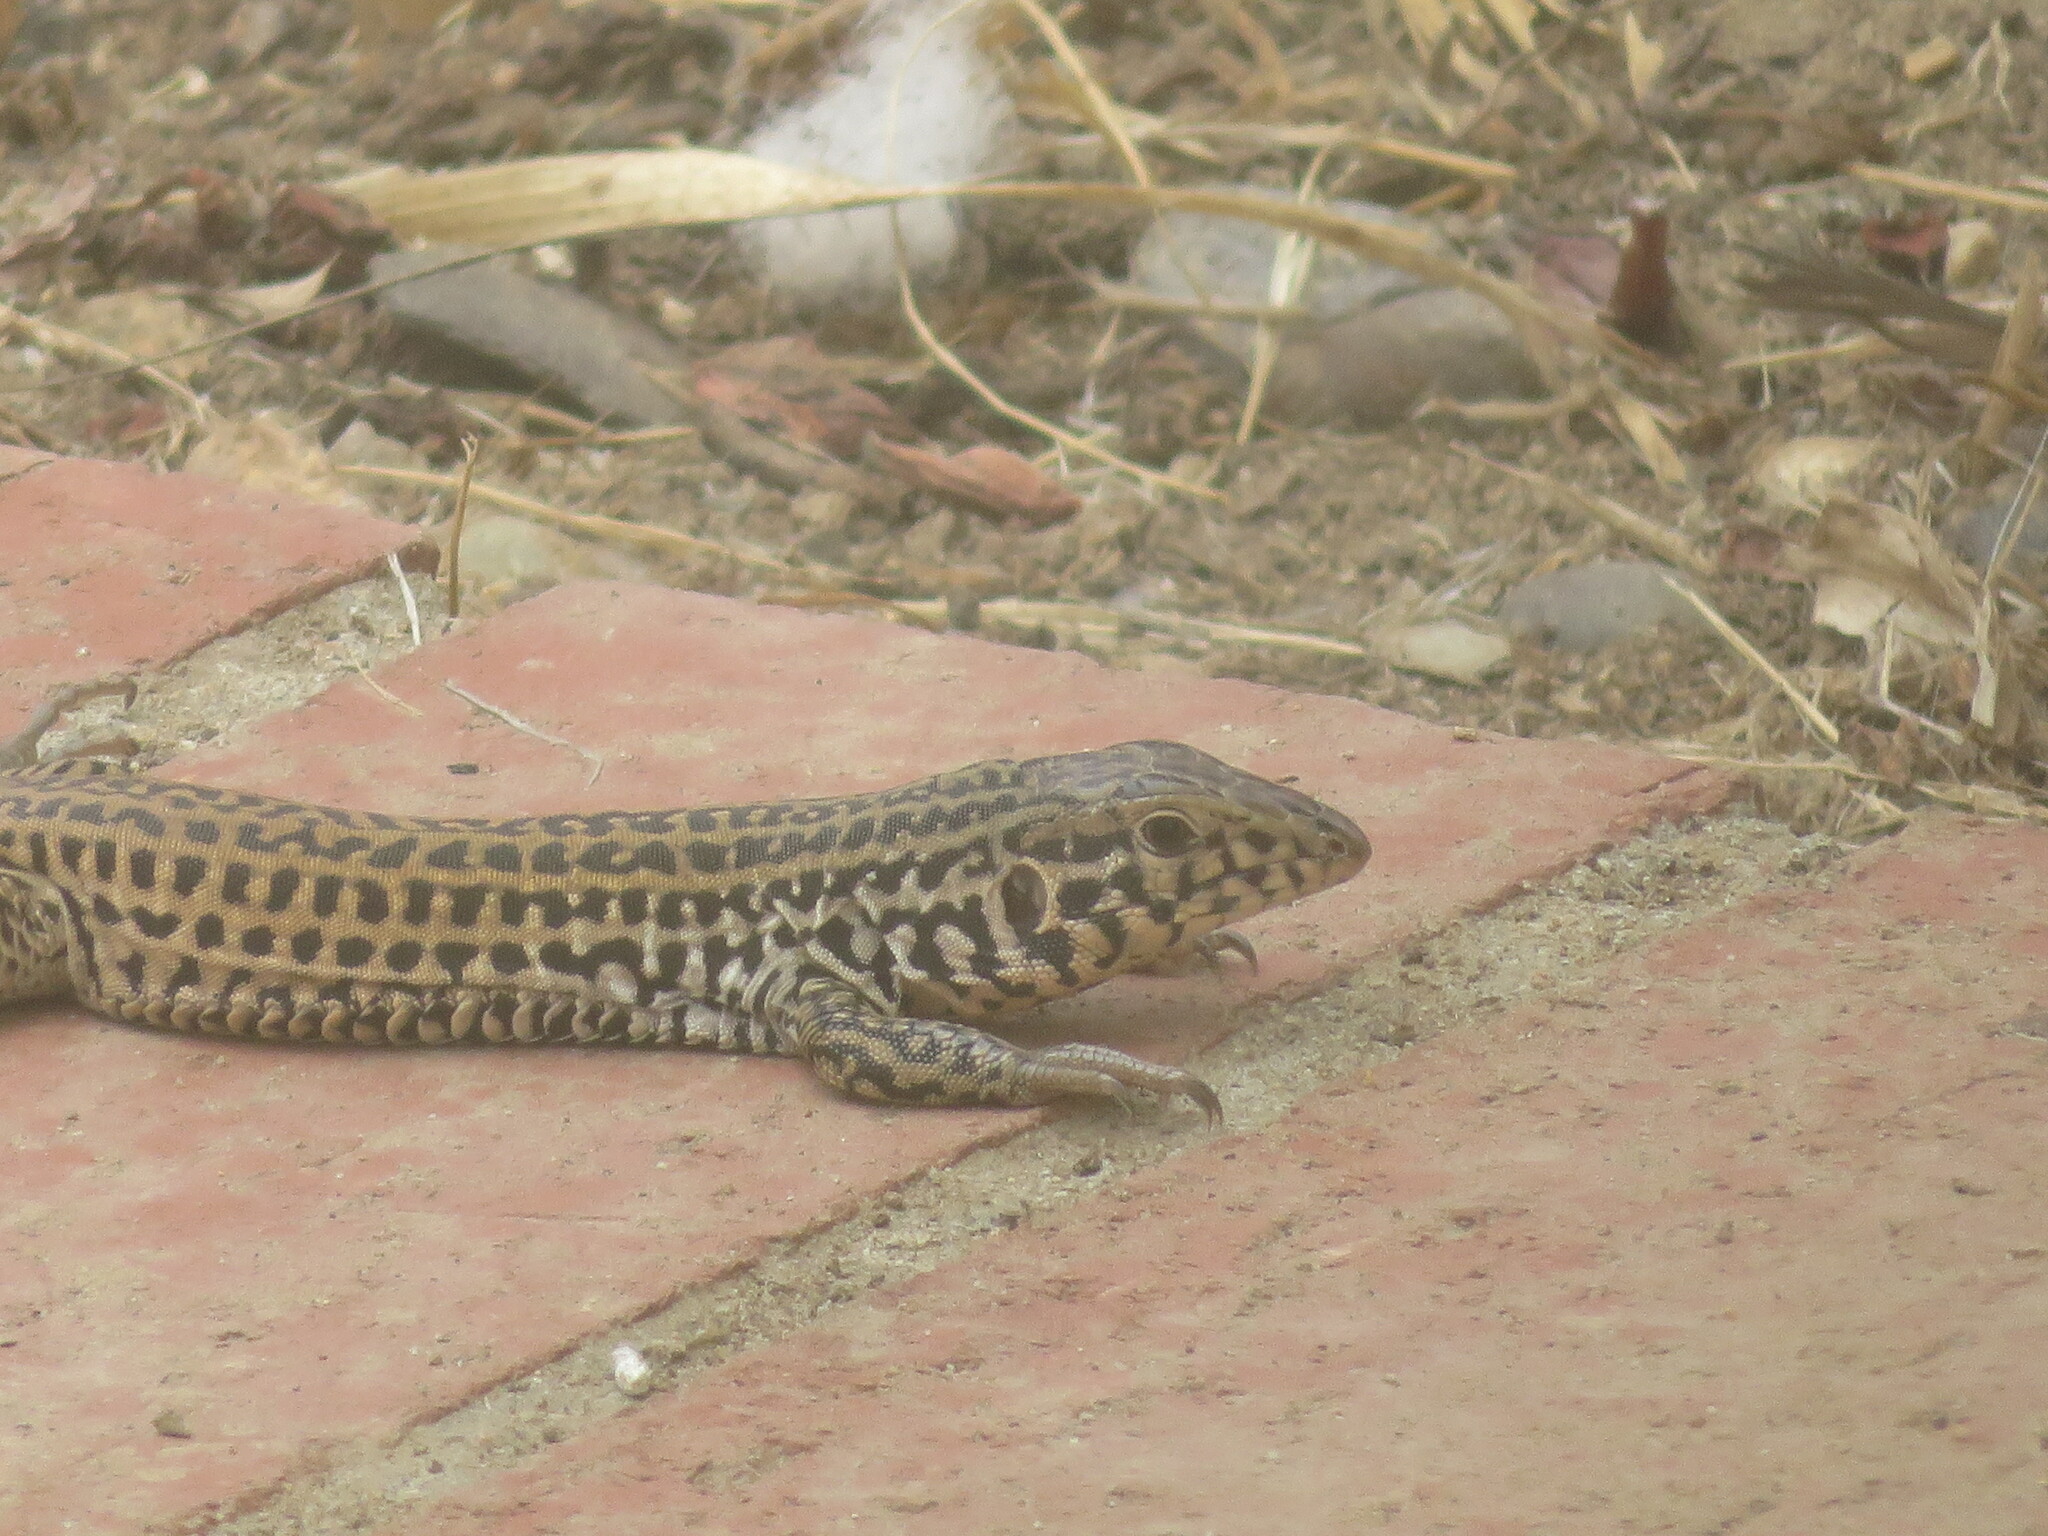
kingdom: Animalia
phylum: Chordata
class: Squamata
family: Teiidae
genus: Aspidoscelis
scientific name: Aspidoscelis tigris
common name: Tiger whiptail
